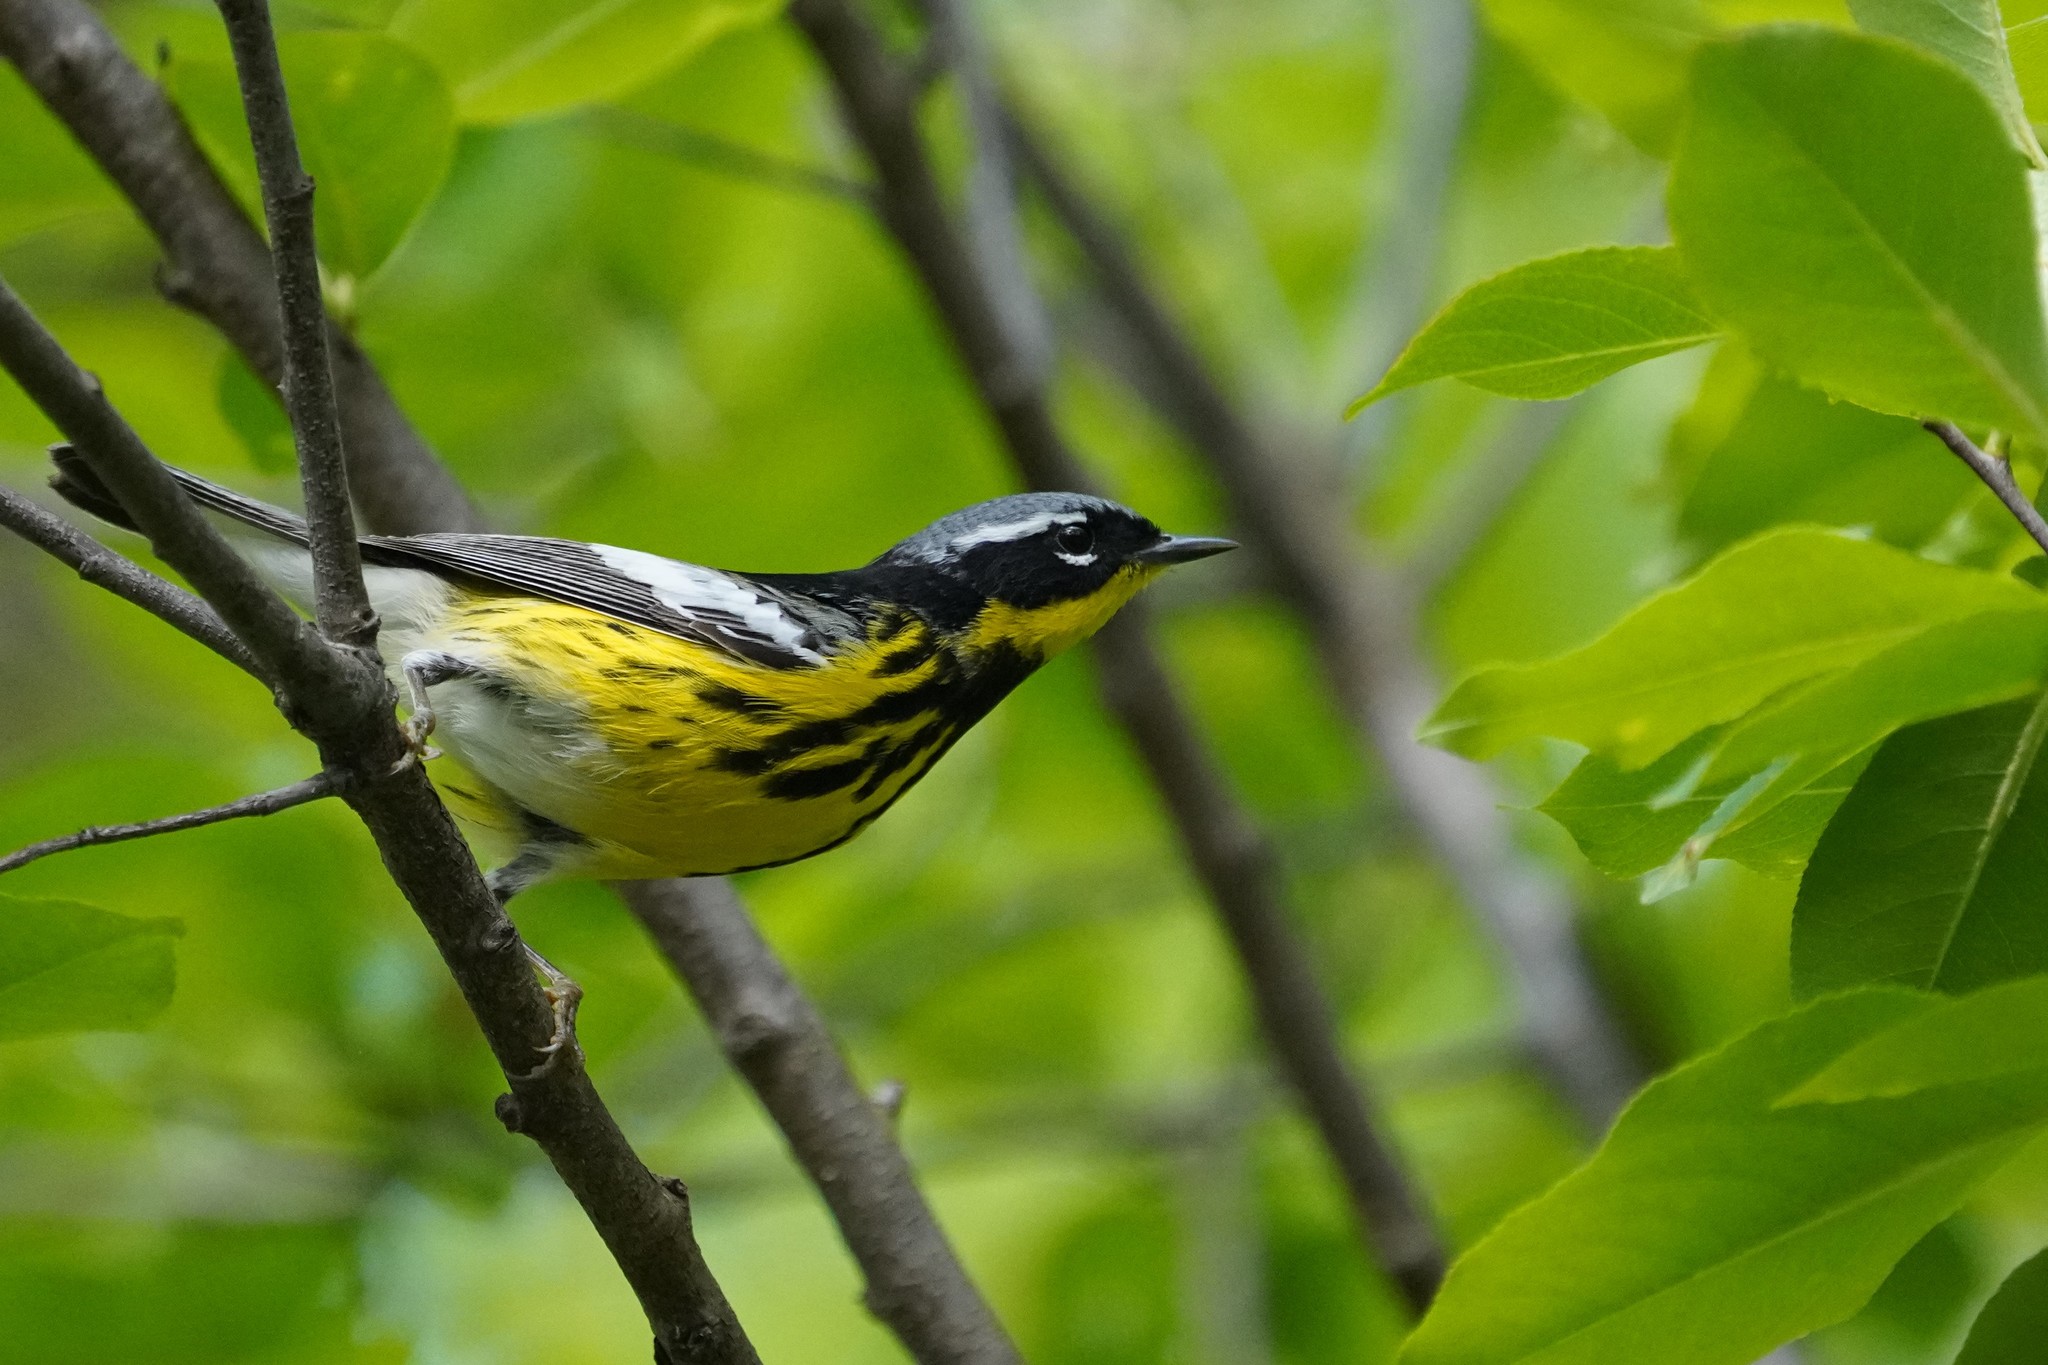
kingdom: Animalia
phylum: Chordata
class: Aves
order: Passeriformes
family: Parulidae
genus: Setophaga
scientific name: Setophaga magnolia
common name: Magnolia warbler
